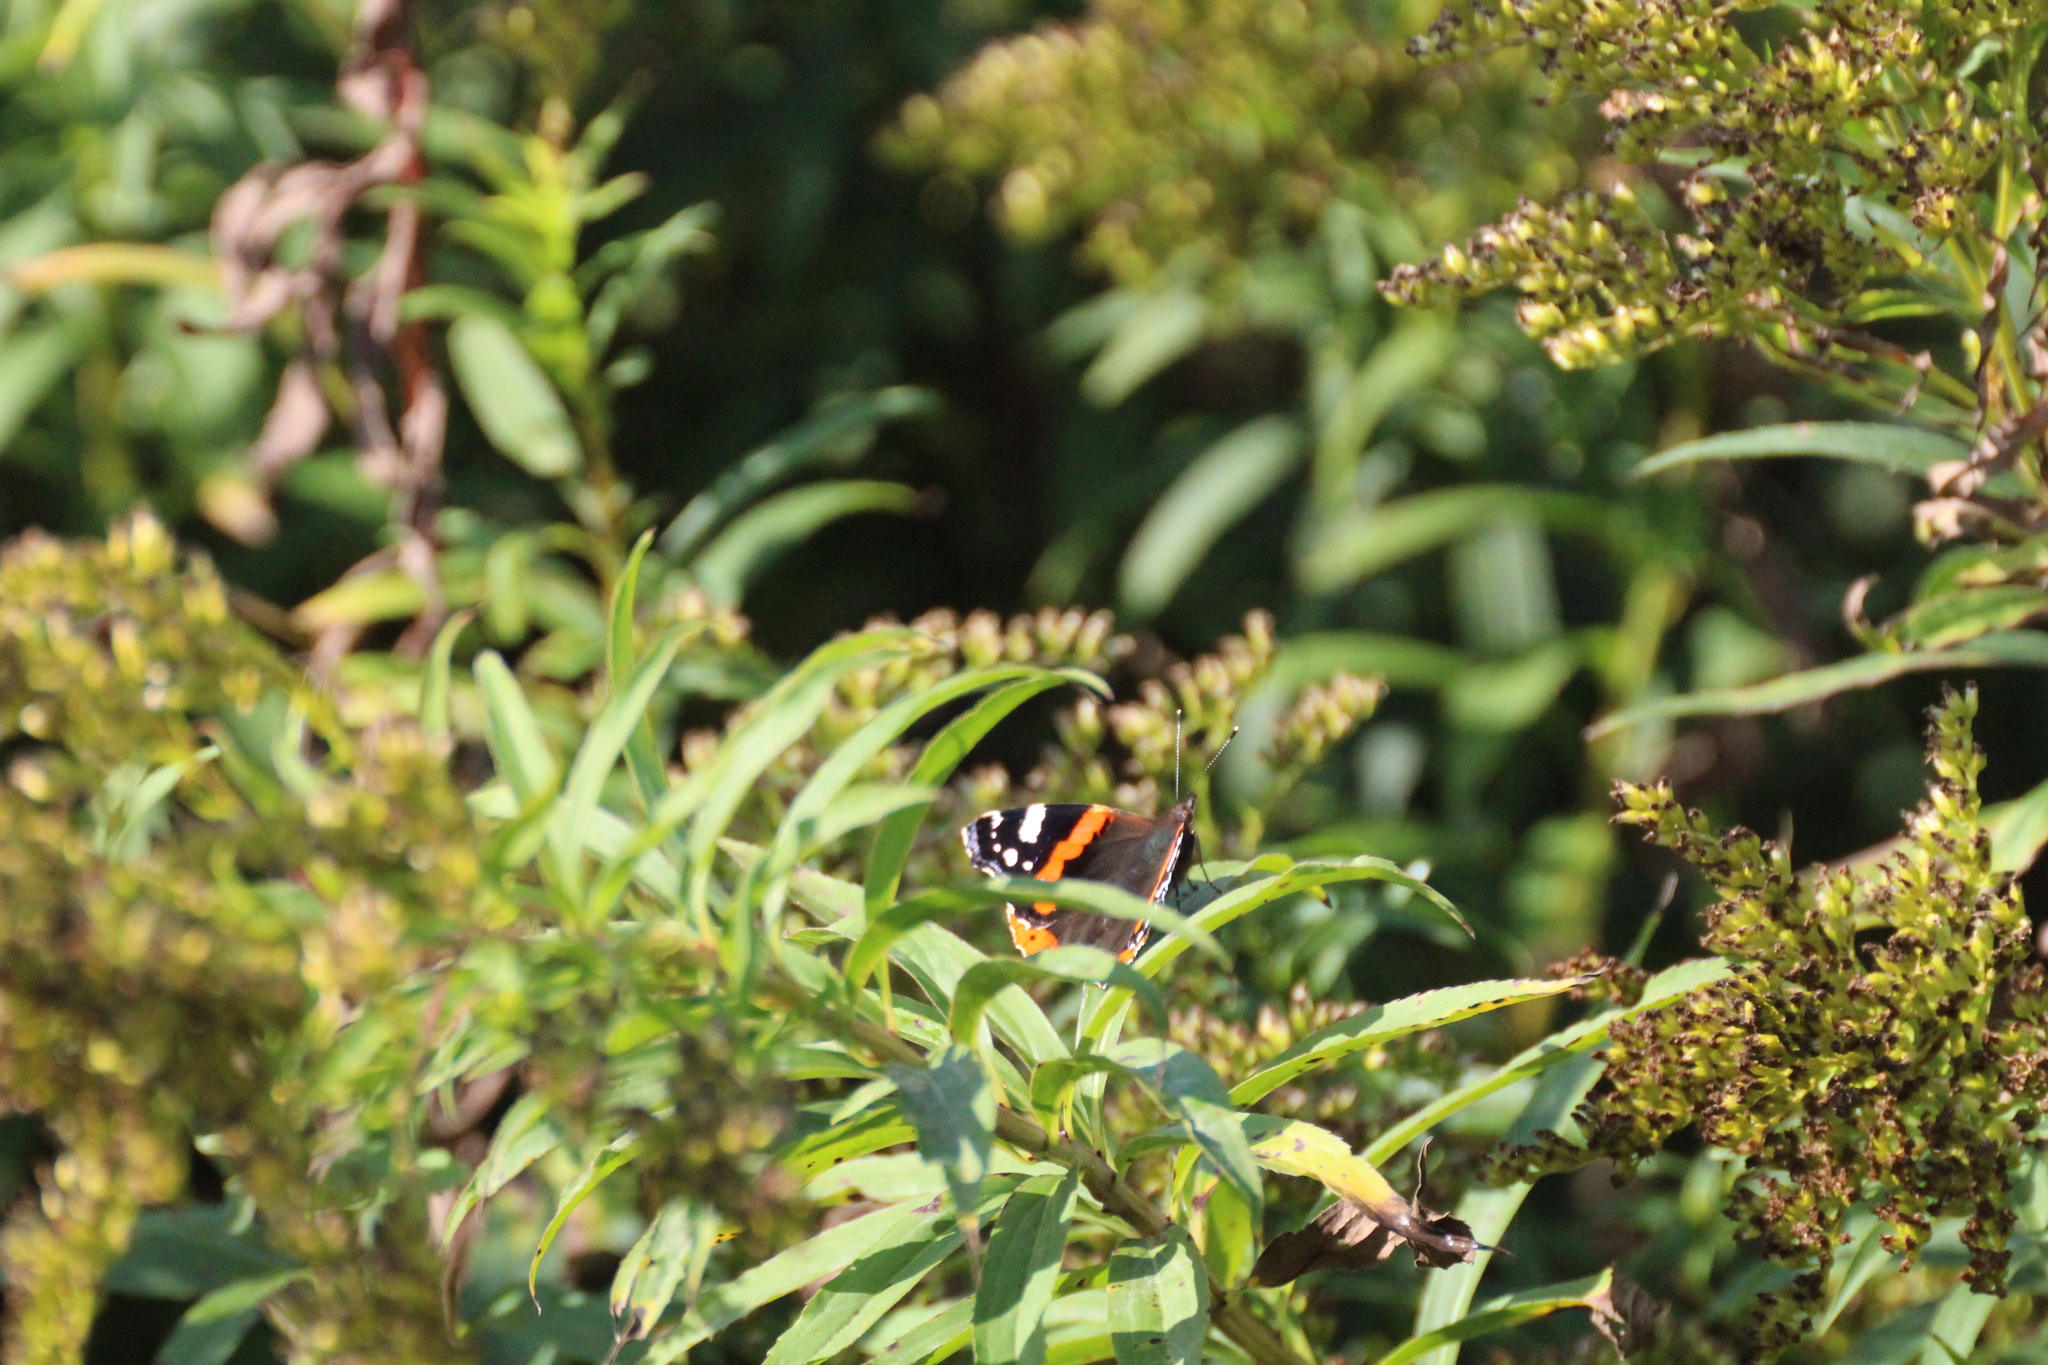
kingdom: Animalia
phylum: Arthropoda
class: Insecta
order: Lepidoptera
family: Nymphalidae
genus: Vanessa
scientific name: Vanessa atalanta
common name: Red admiral
